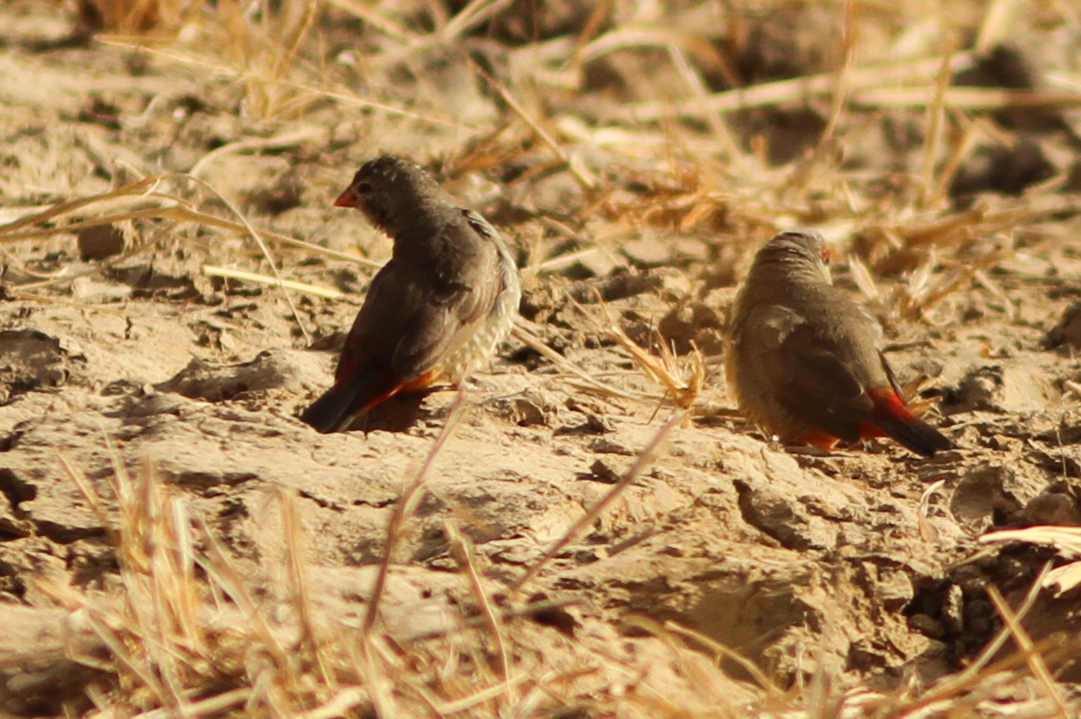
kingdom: Animalia
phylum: Chordata
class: Aves
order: Passeriformes
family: Estrildidae
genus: Amandava
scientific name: Amandava subflava
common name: Orange-breasted waxbill
